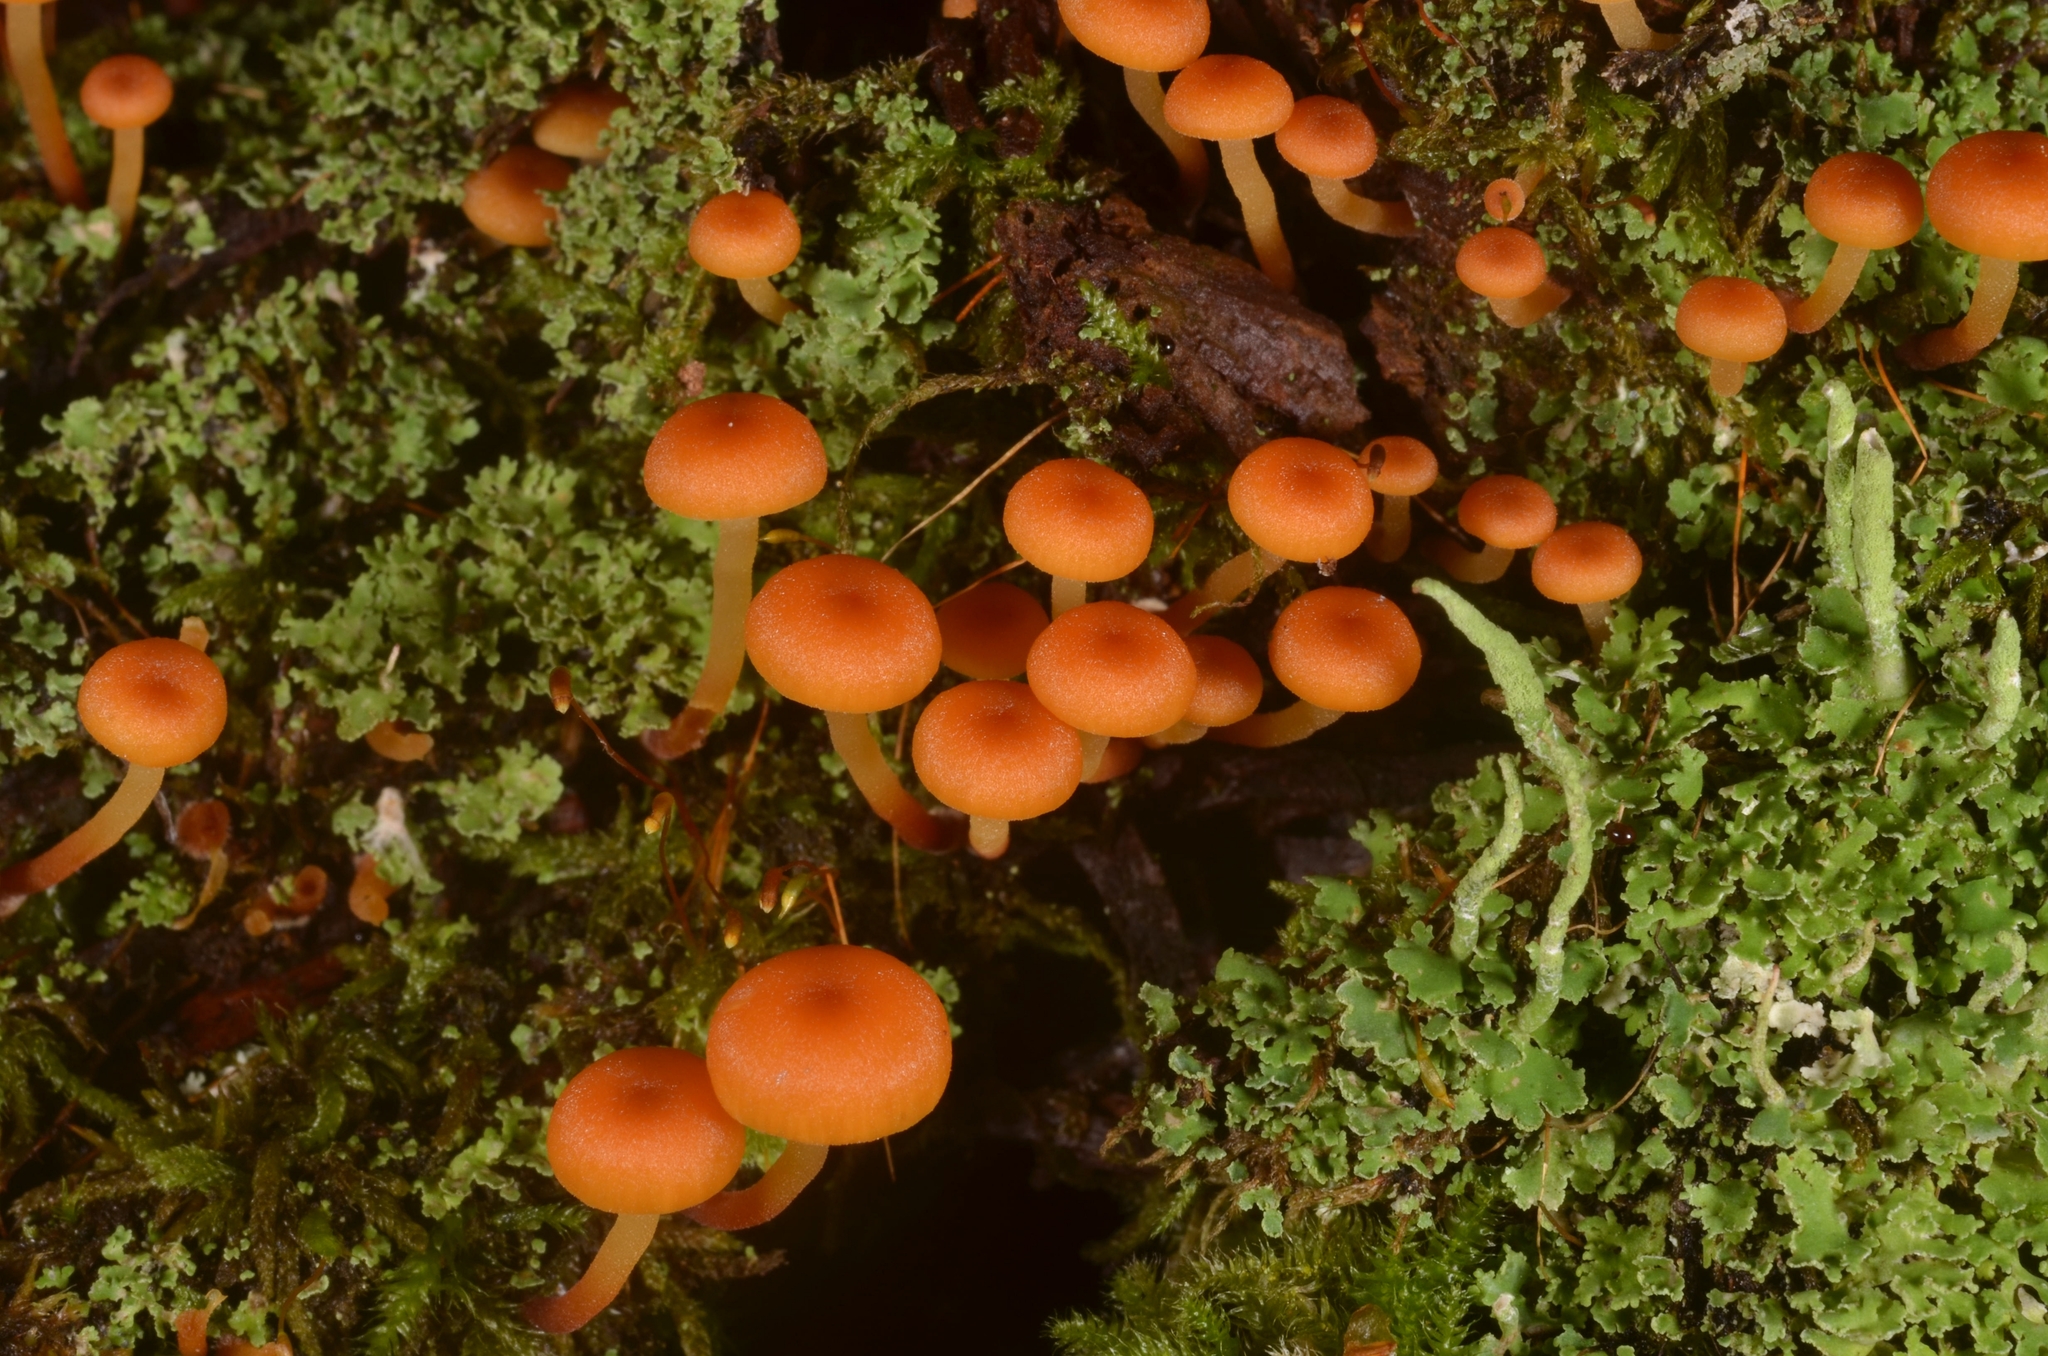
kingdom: Fungi
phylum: Basidiomycota
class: Agaricomycetes
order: Agaricales
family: Mycenaceae
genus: Xeromphalina
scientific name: Xeromphalina campanella
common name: Pinewood gingertail
